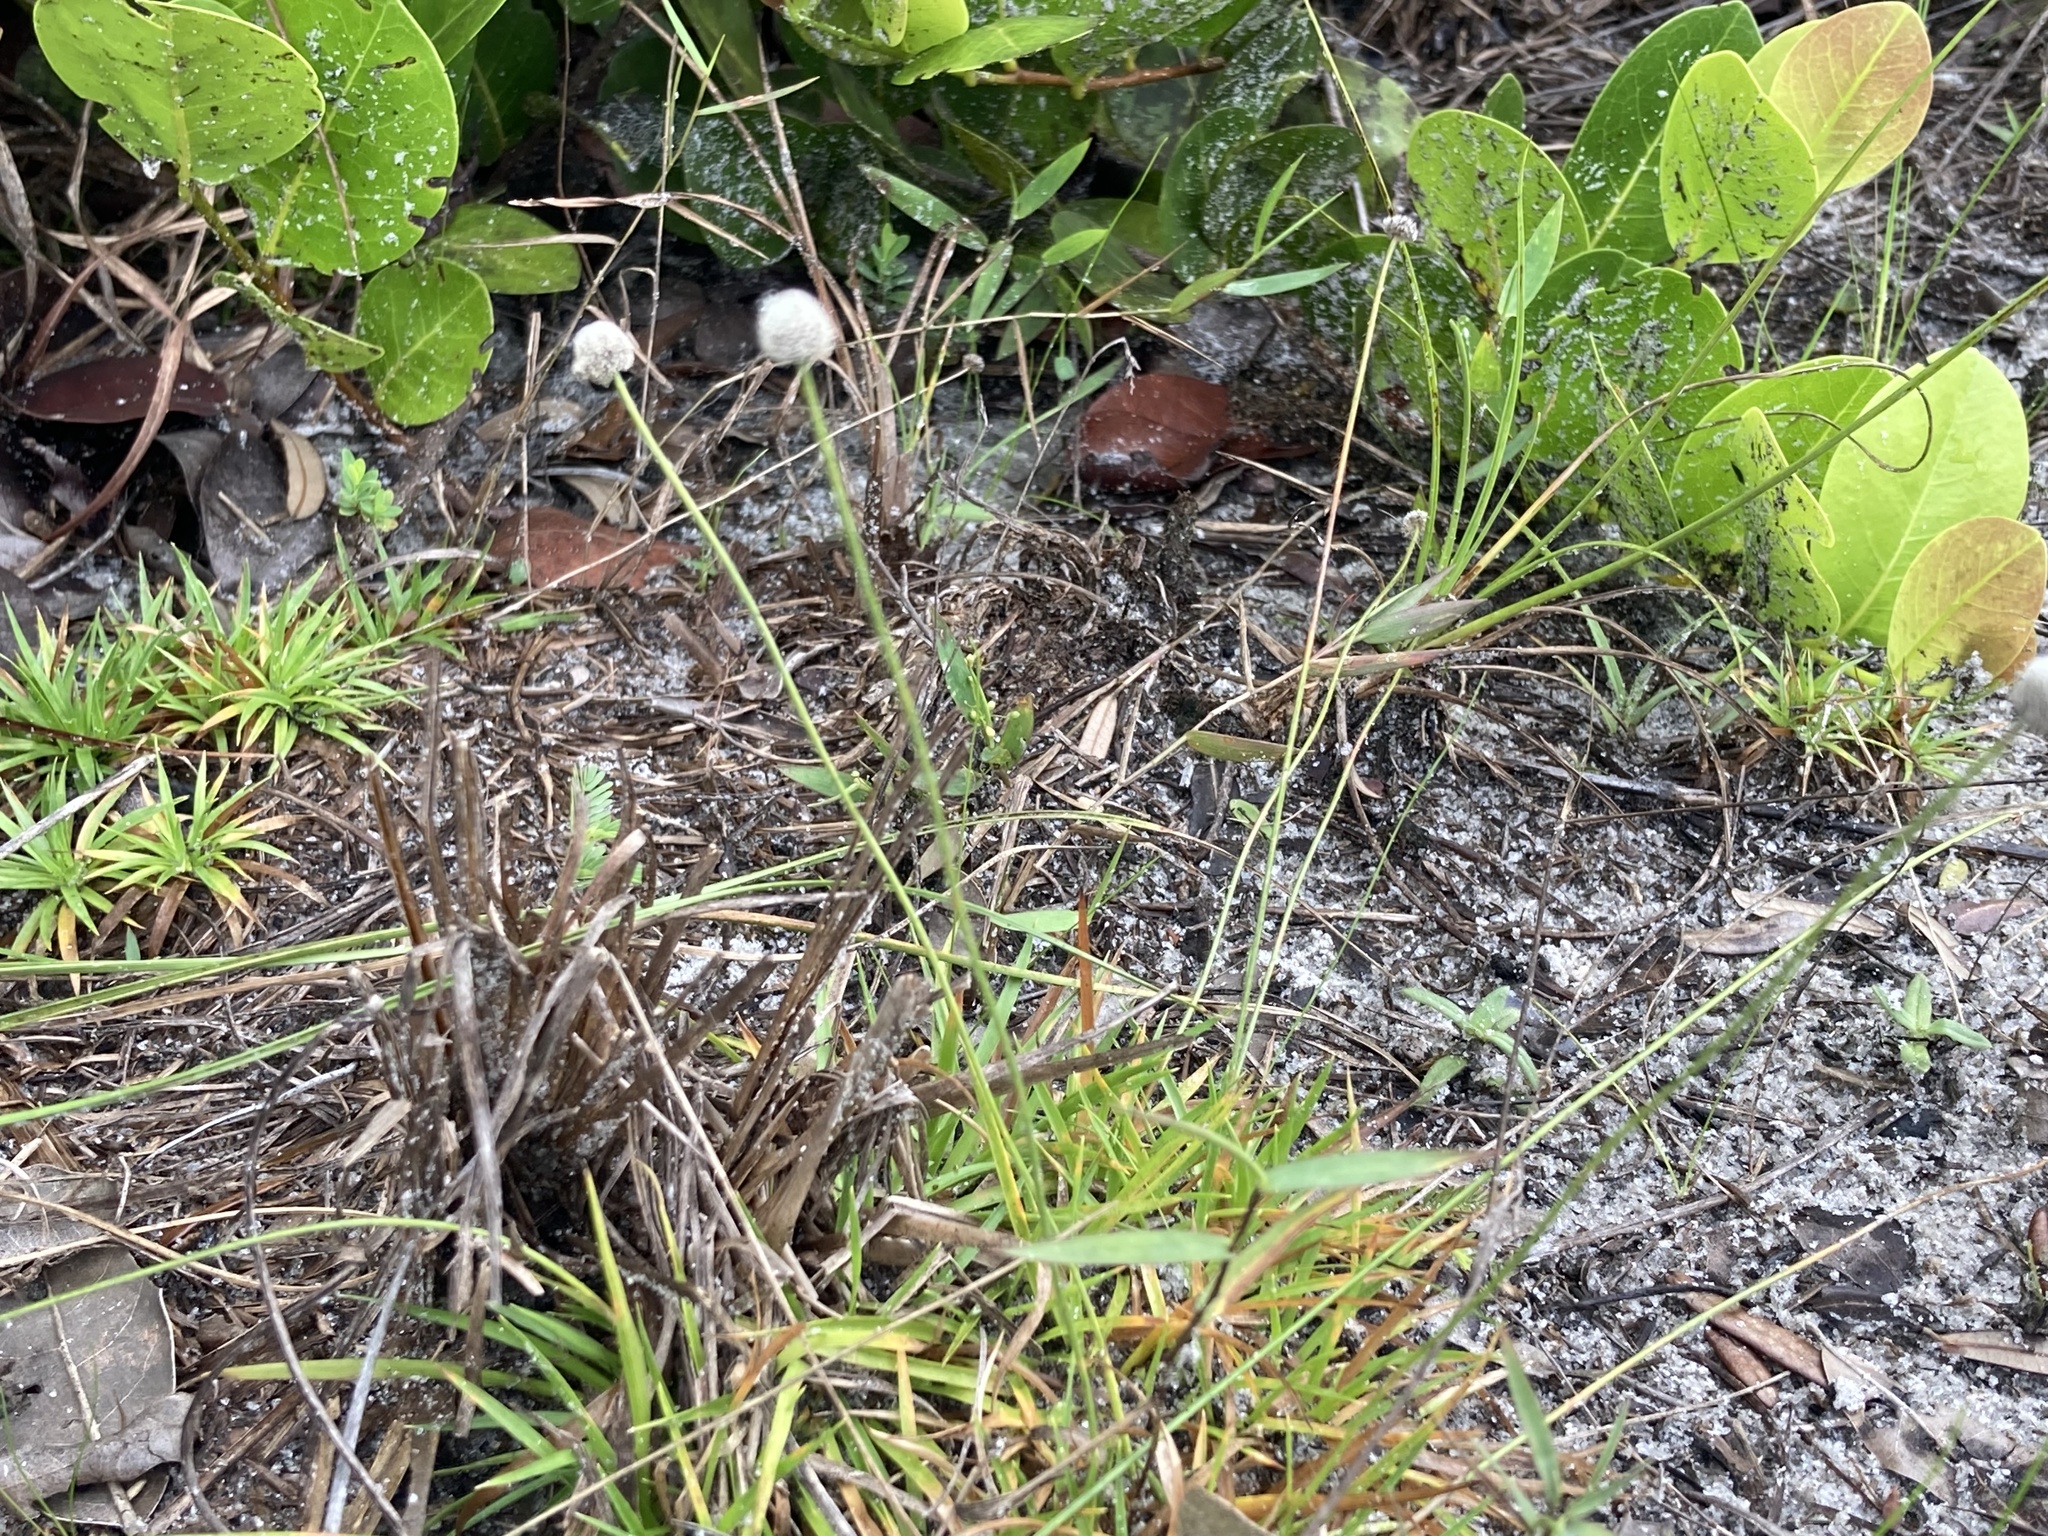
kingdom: Plantae
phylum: Tracheophyta
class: Liliopsida
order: Poales
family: Eriocaulaceae
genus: Paepalanthus
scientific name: Paepalanthus anceps
